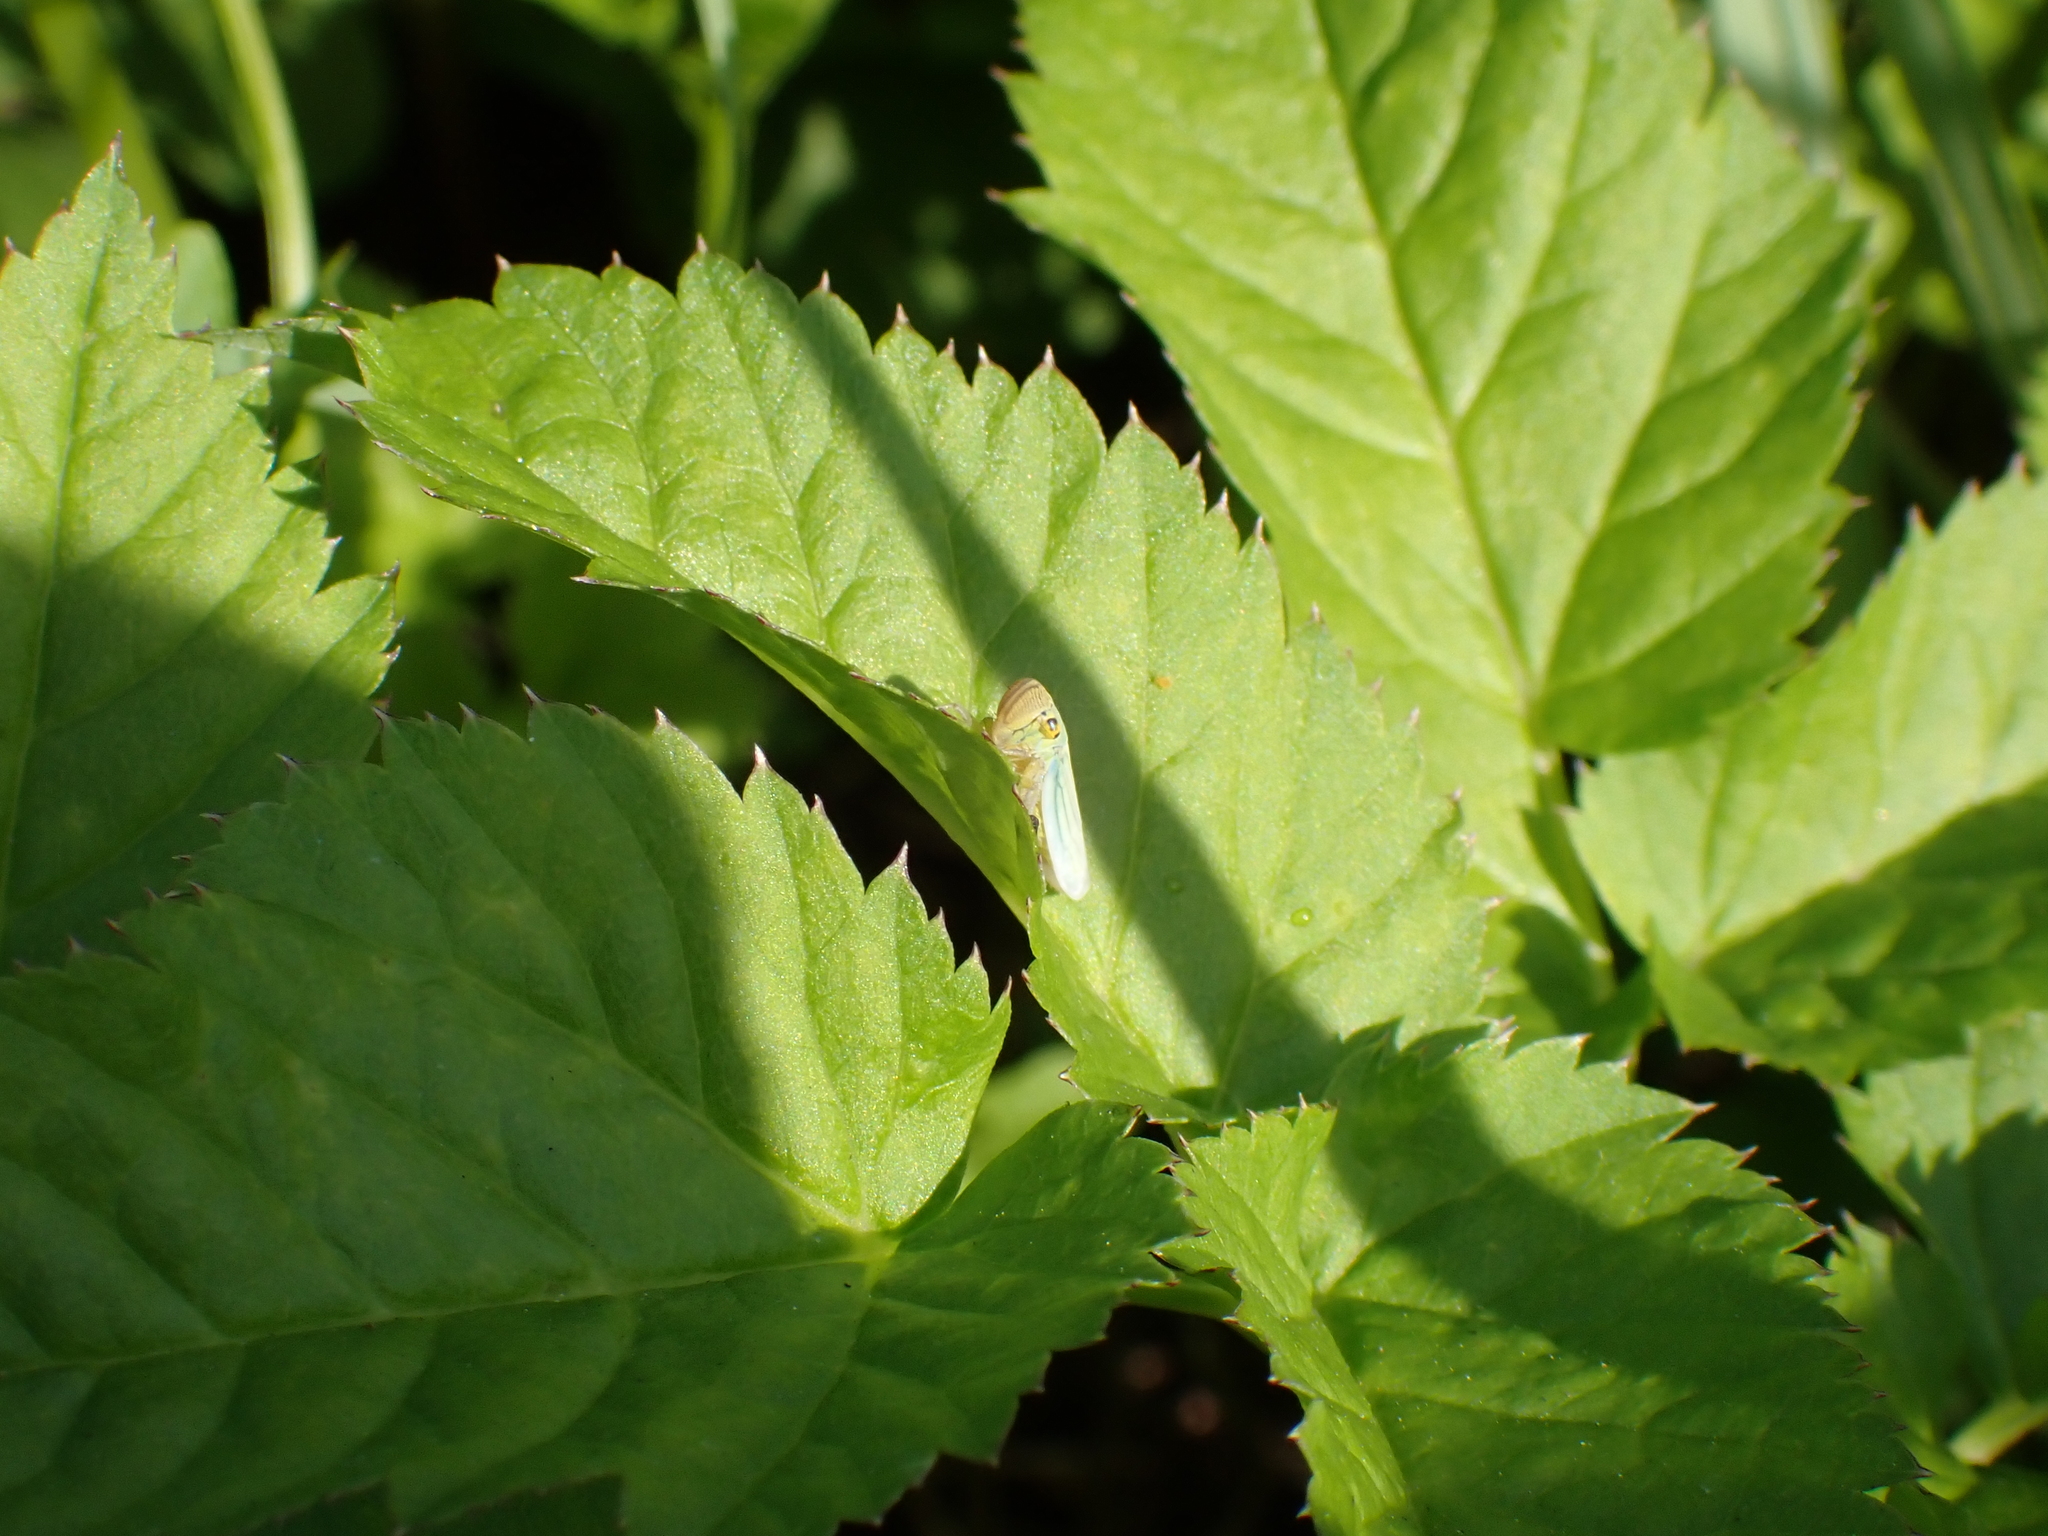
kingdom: Animalia
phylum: Arthropoda
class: Insecta
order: Hemiptera
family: Cicadellidae
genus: Cicadella
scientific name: Cicadella viridis
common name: Leafhopper
